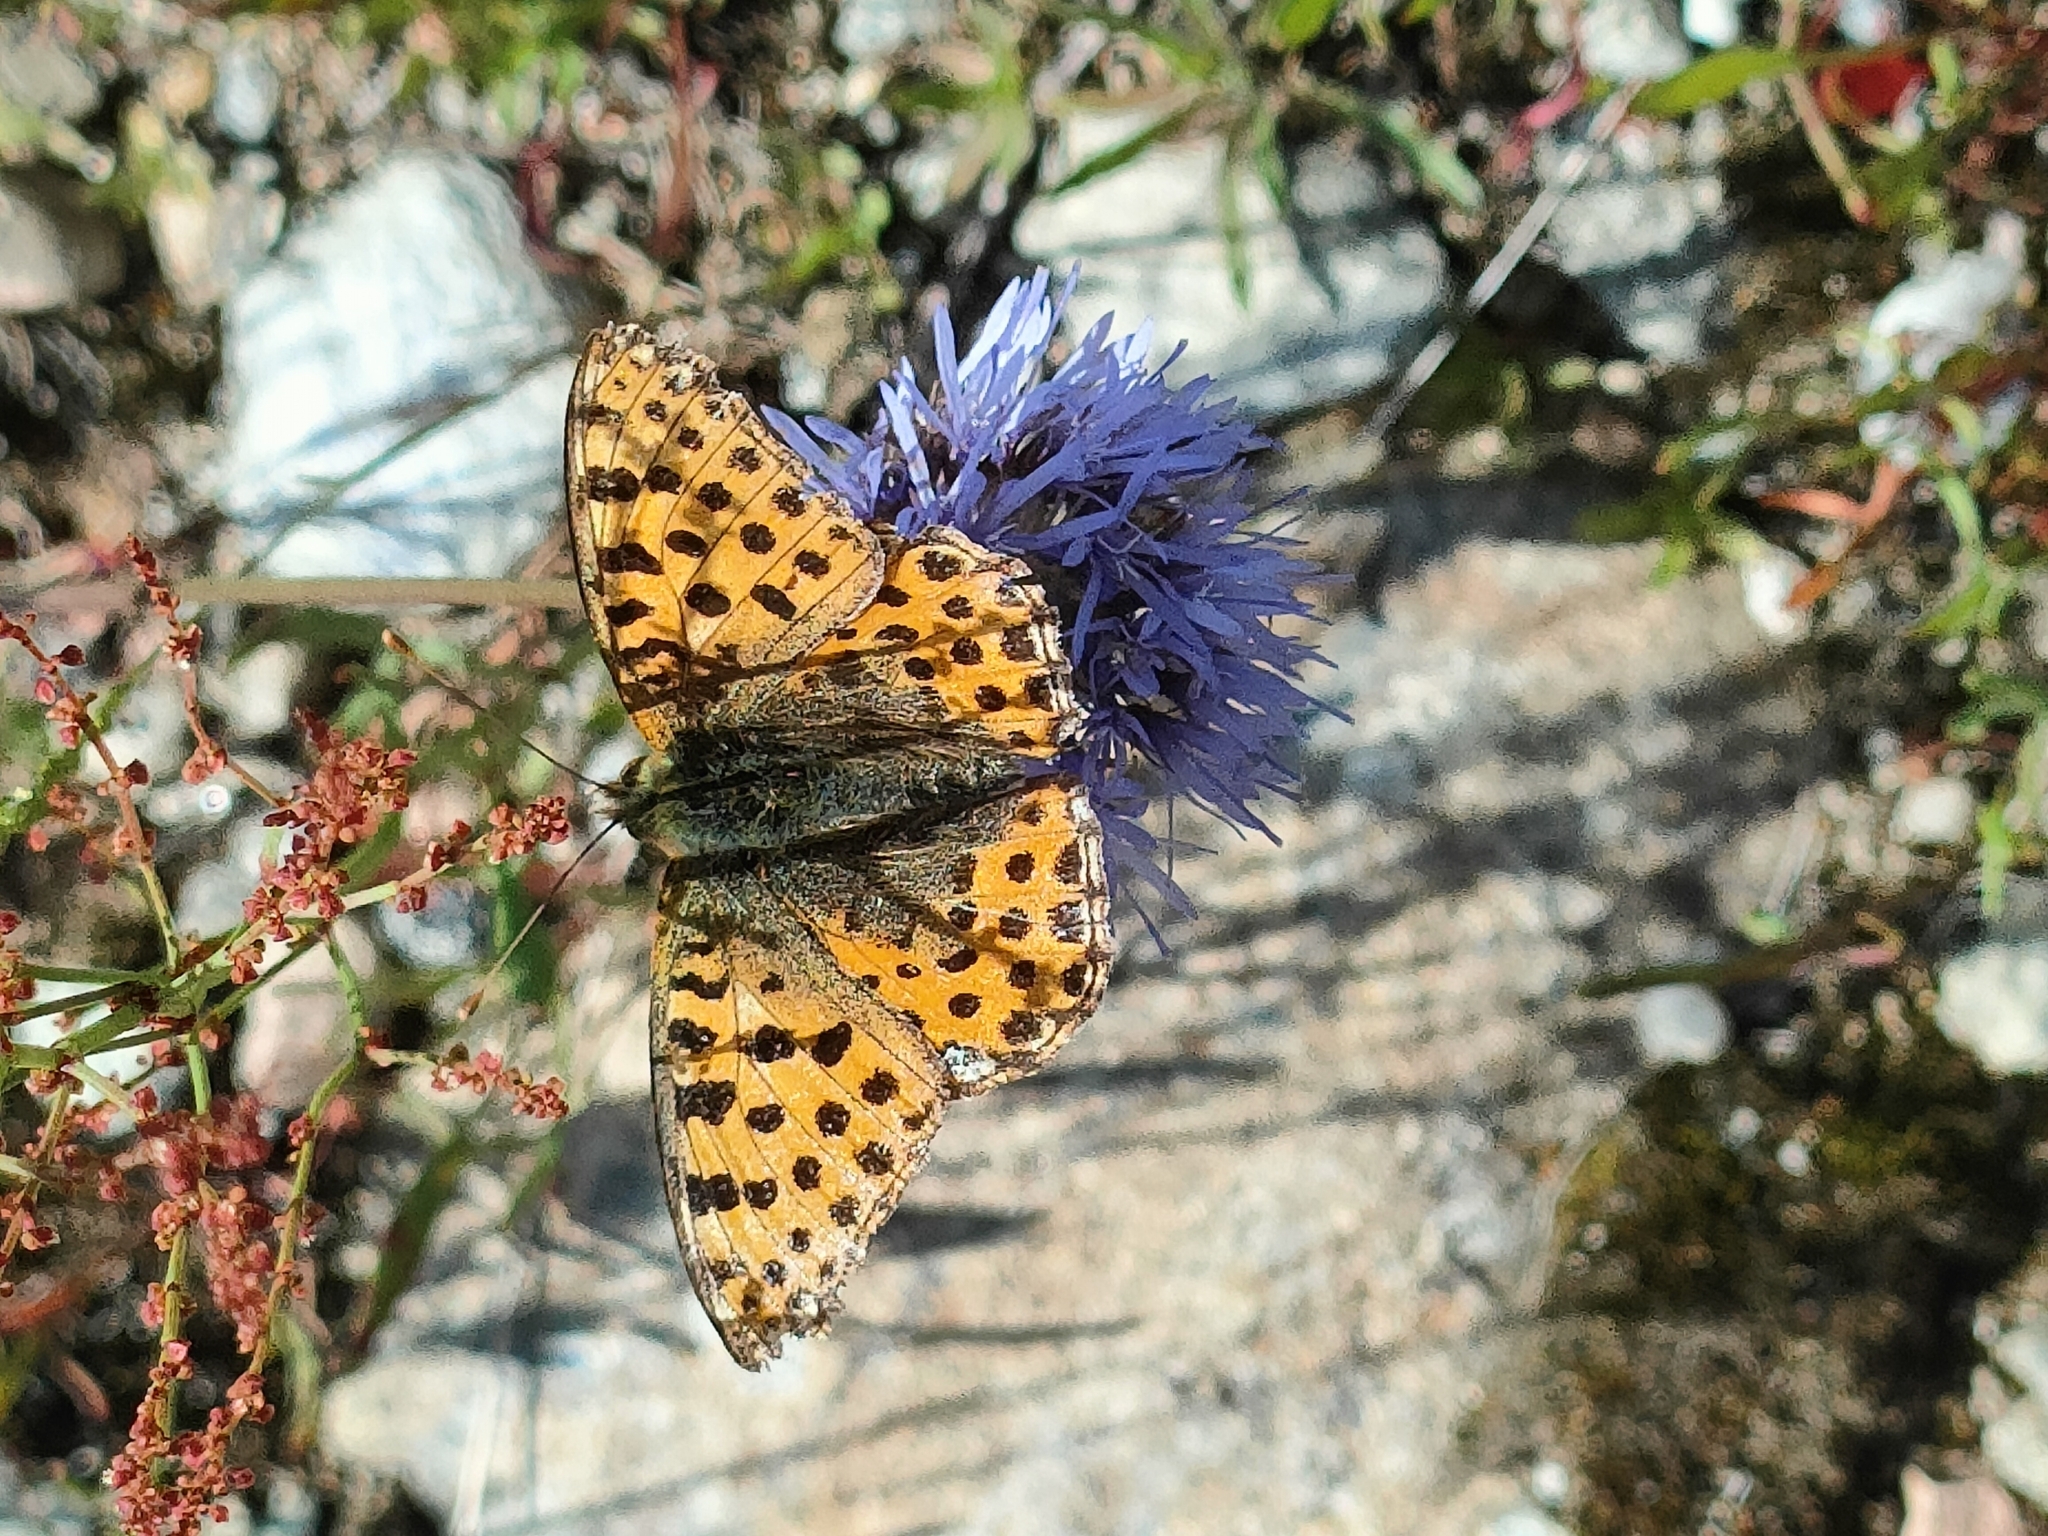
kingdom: Animalia
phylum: Arthropoda
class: Insecta
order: Lepidoptera
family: Nymphalidae
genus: Issoria
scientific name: Issoria lathonia
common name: Queen of spain fritillary
